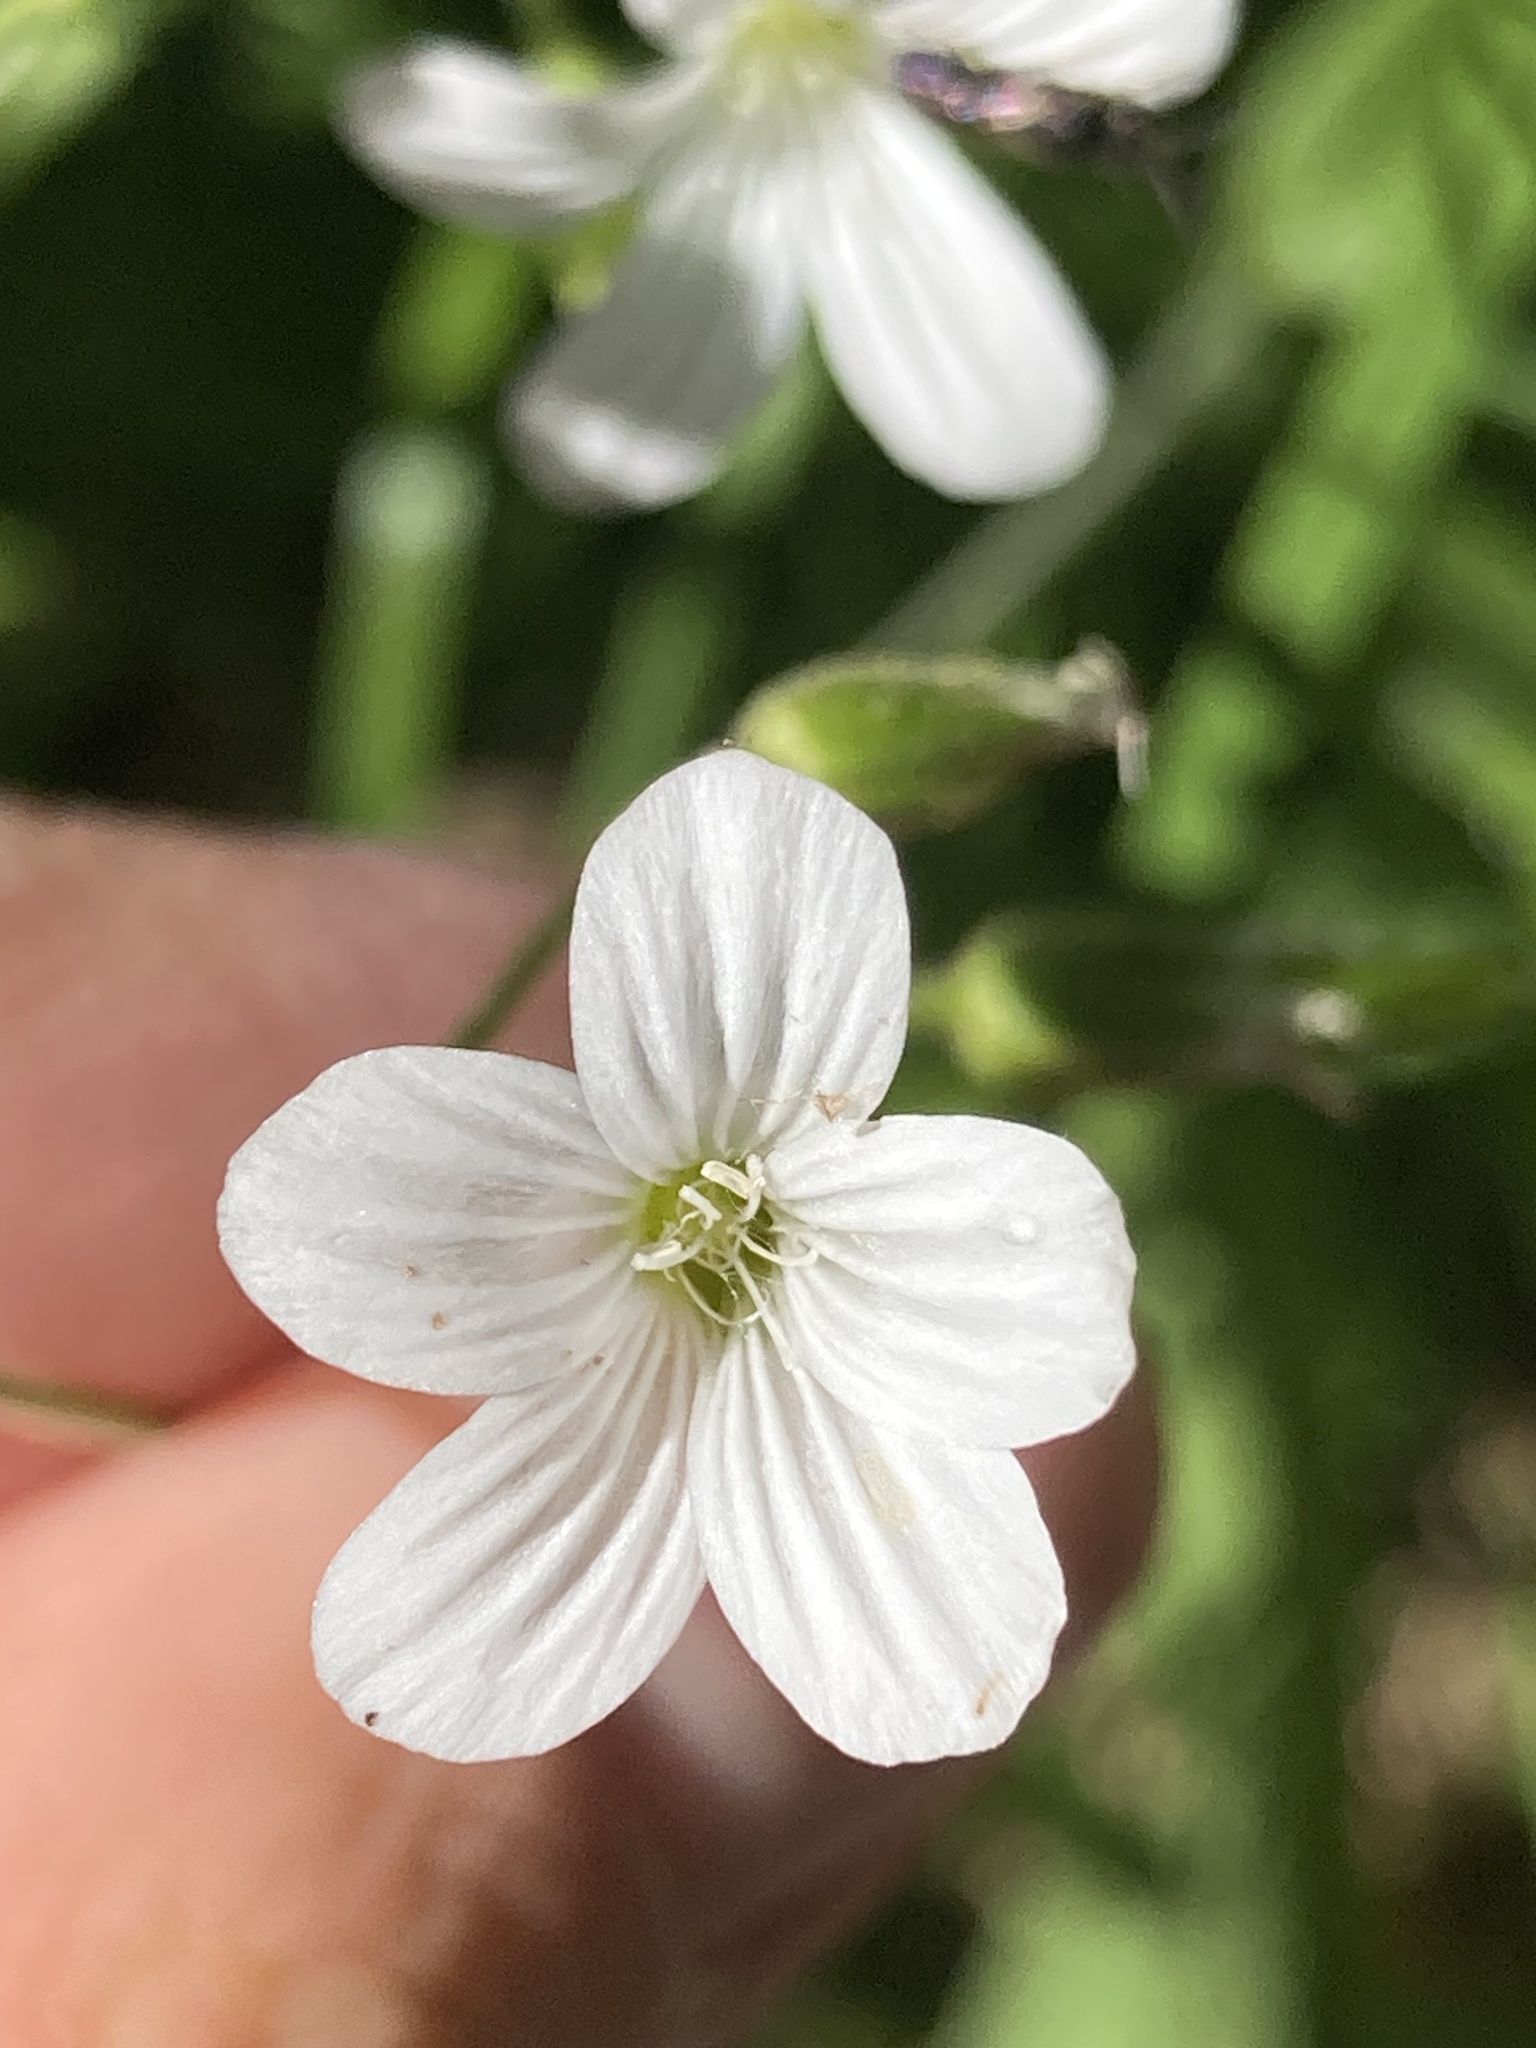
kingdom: Plantae
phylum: Tracheophyta
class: Magnoliopsida
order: Caryophyllales
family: Caryophyllaceae
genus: Cerastium
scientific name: Cerastium pauciflorum
